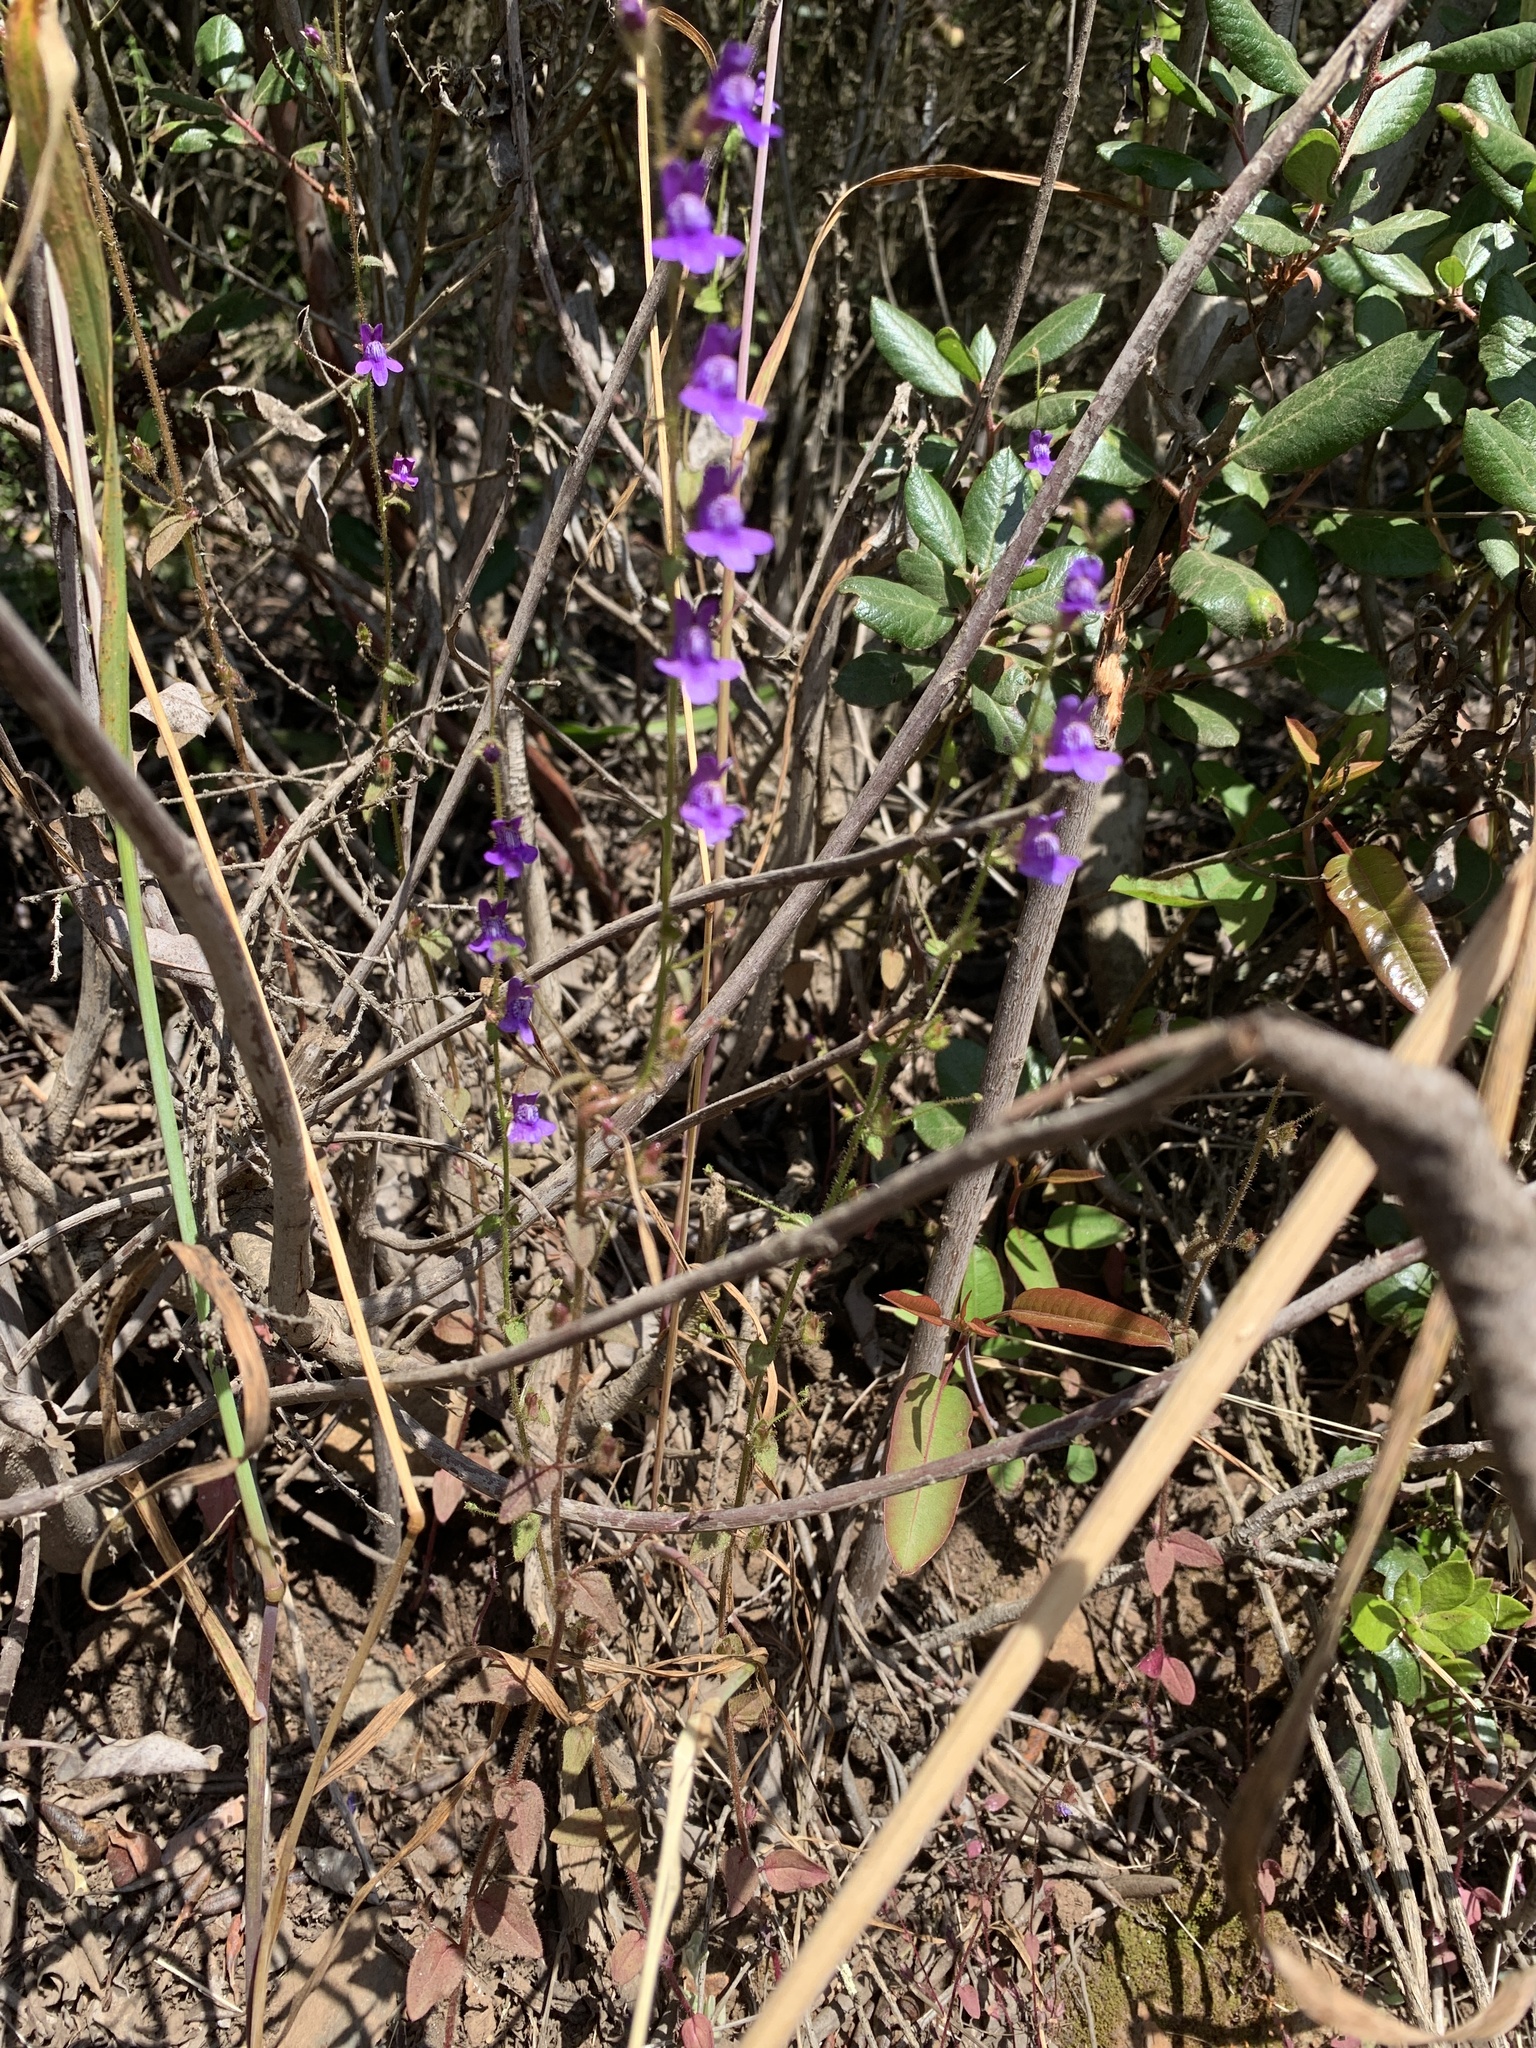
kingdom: Plantae
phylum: Tracheophyta
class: Magnoliopsida
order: Lamiales
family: Plantaginaceae
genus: Sairocarpus
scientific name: Sairocarpus nuttallianus
